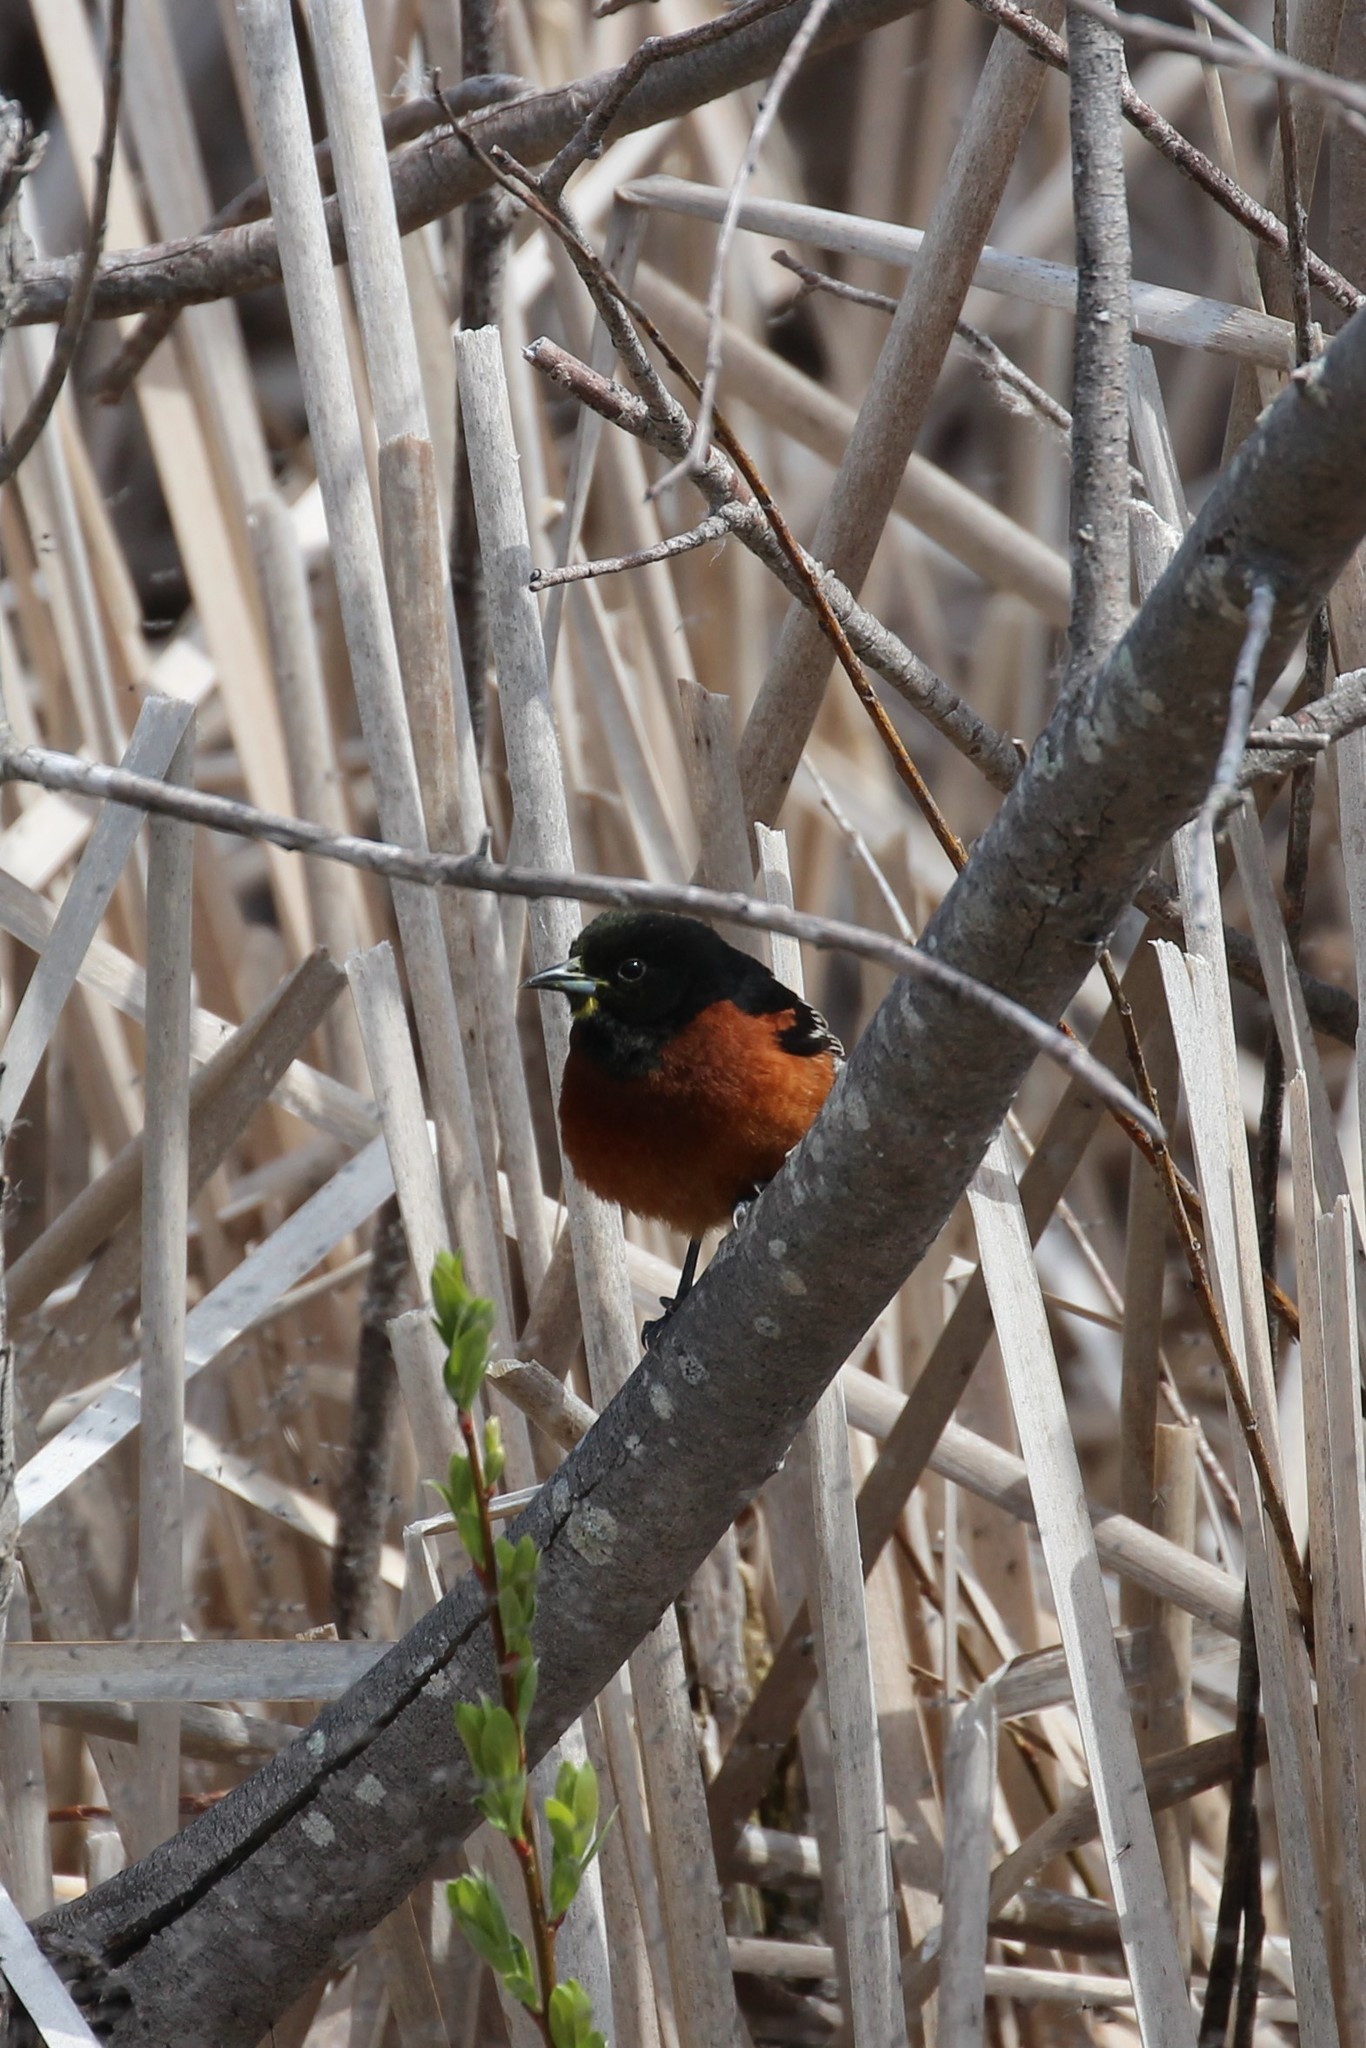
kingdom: Animalia
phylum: Chordata
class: Aves
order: Passeriformes
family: Icteridae
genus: Icterus
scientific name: Icterus spurius
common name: Orchard oriole
